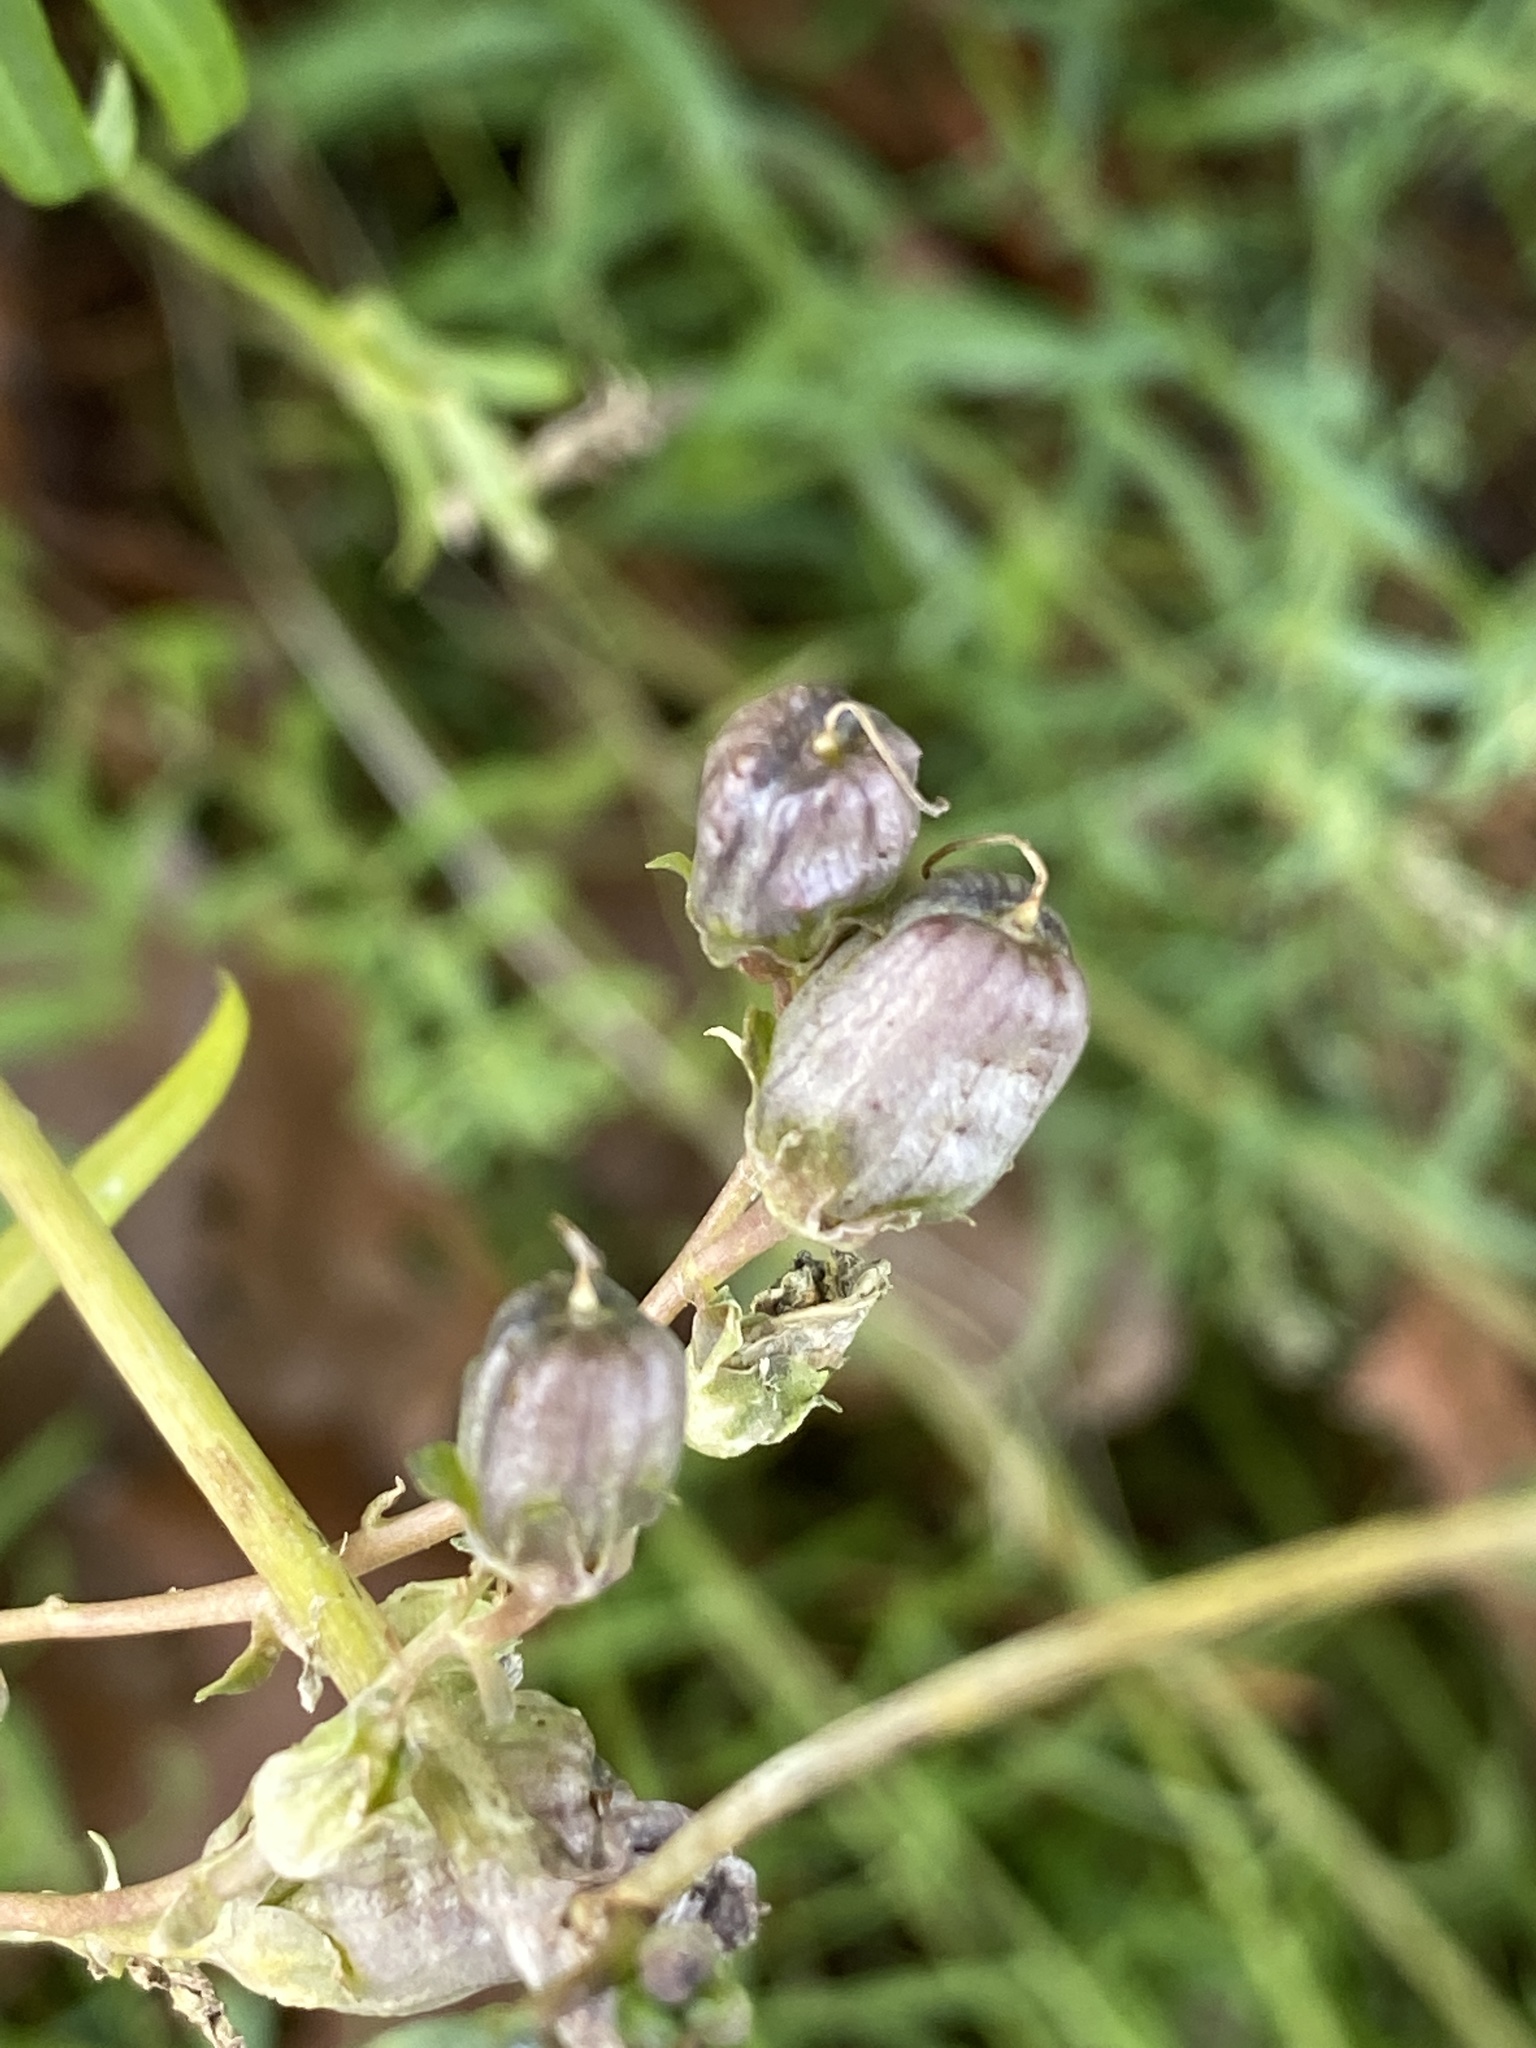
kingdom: Plantae
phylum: Tracheophyta
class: Magnoliopsida
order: Lamiales
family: Plantaginaceae
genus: Linaria
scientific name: Linaria vulgaris
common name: Butter and eggs
